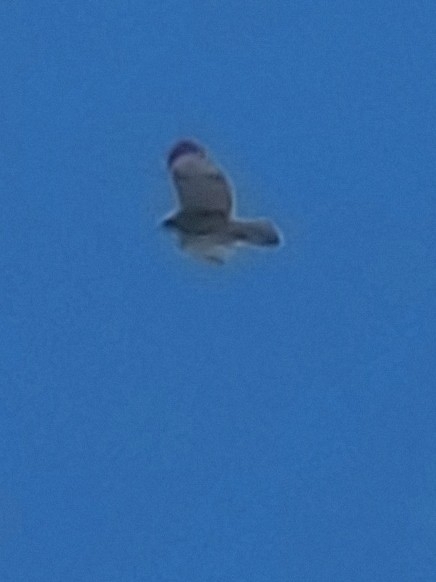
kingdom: Animalia
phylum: Chordata
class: Aves
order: Accipitriformes
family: Accipitridae
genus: Buteo
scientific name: Buteo lineatus
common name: Red-shouldered hawk
